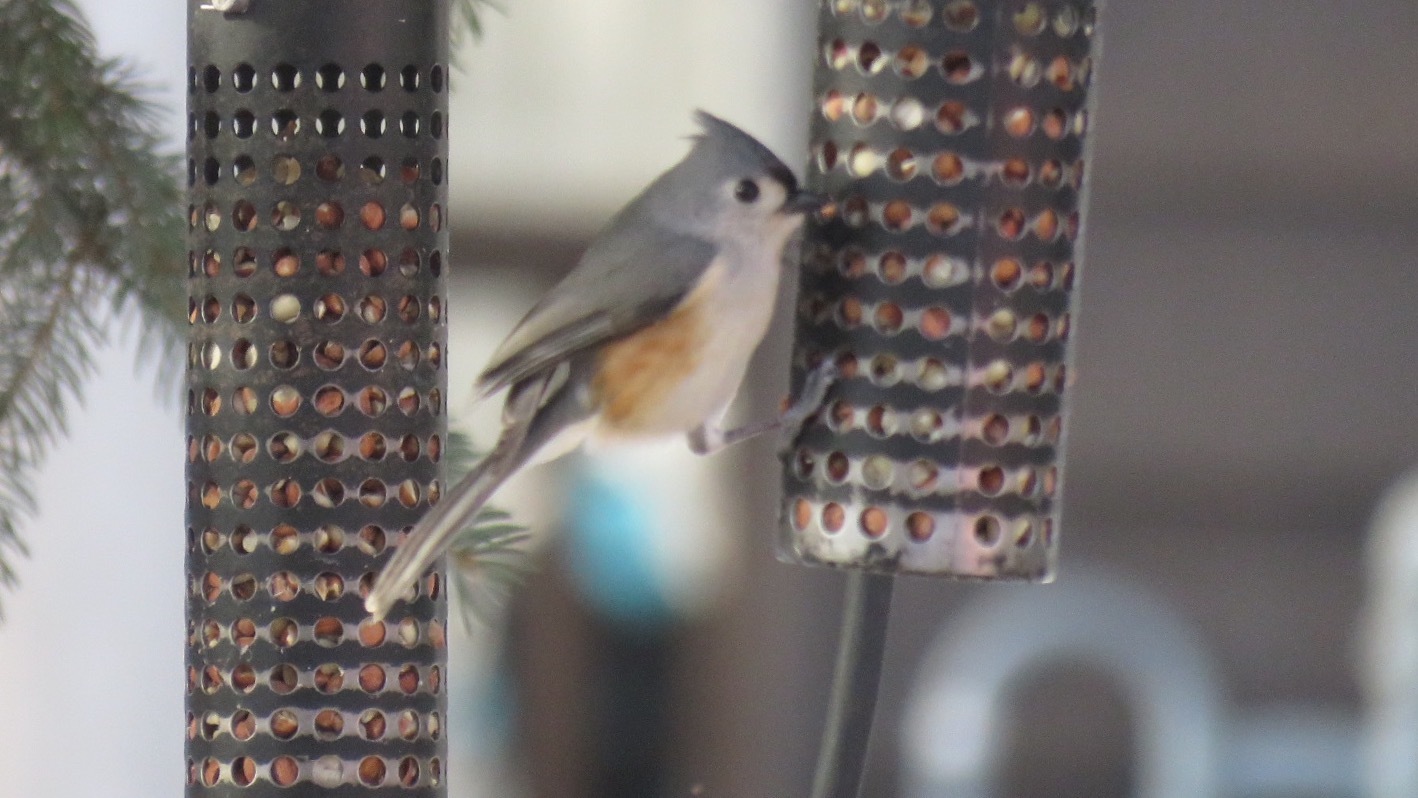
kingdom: Animalia
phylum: Chordata
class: Aves
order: Passeriformes
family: Paridae
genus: Baeolophus
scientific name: Baeolophus bicolor
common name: Tufted titmouse
